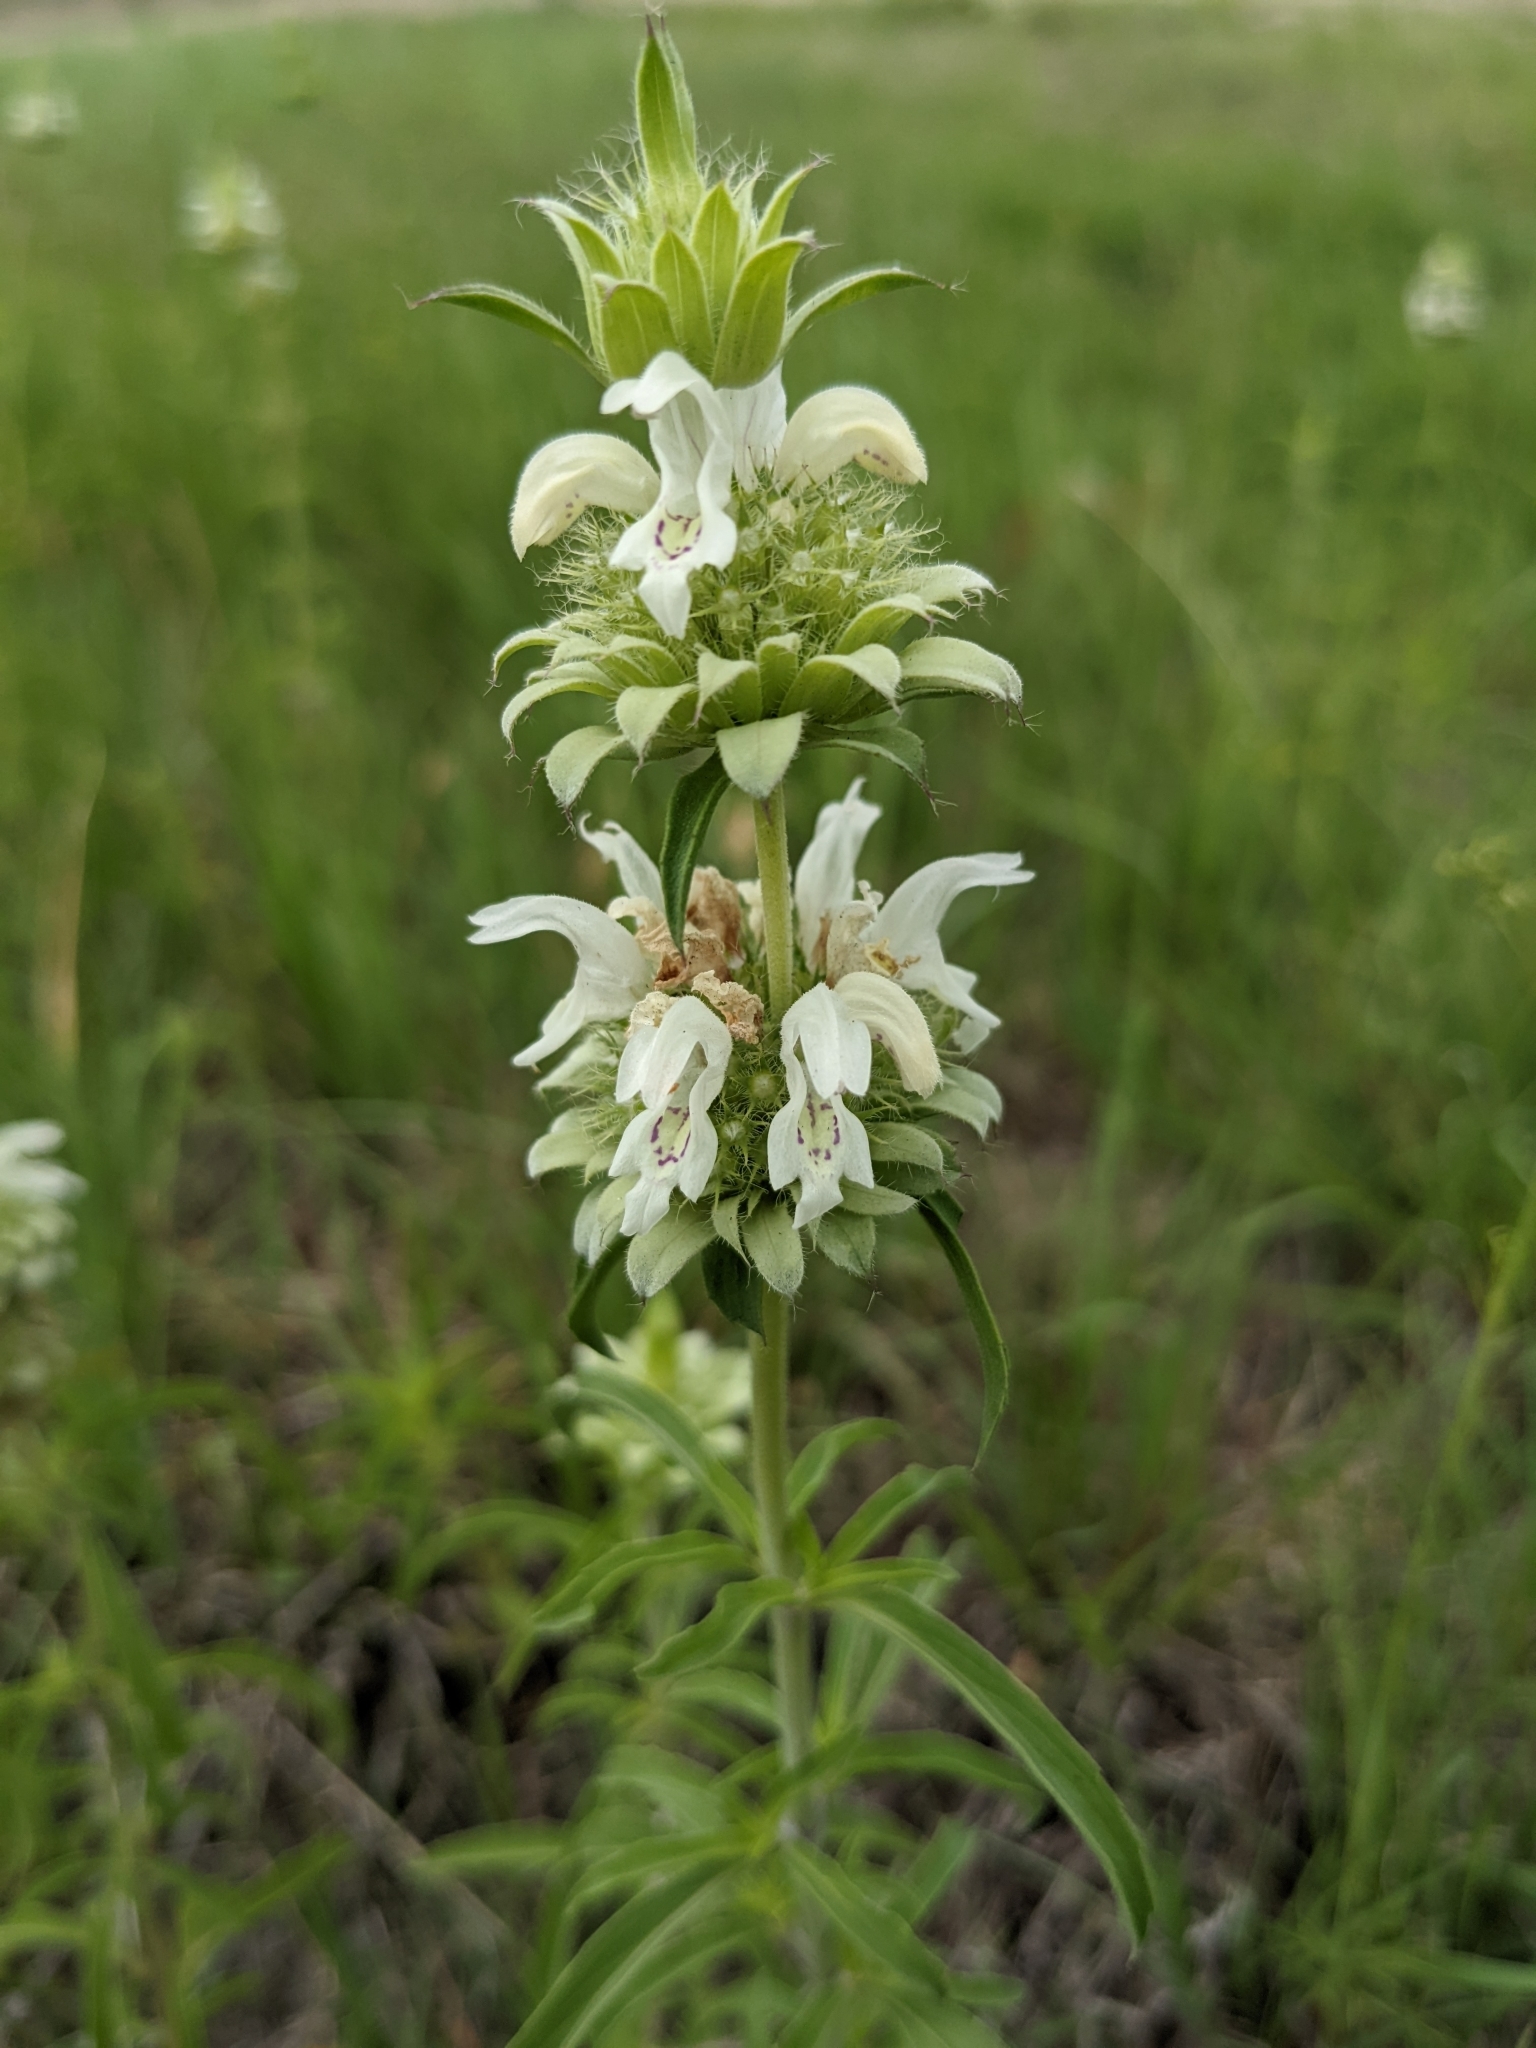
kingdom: Plantae
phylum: Tracheophyta
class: Magnoliopsida
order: Lamiales
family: Lamiaceae
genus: Monarda
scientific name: Monarda citriodora
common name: Lemon beebalm
